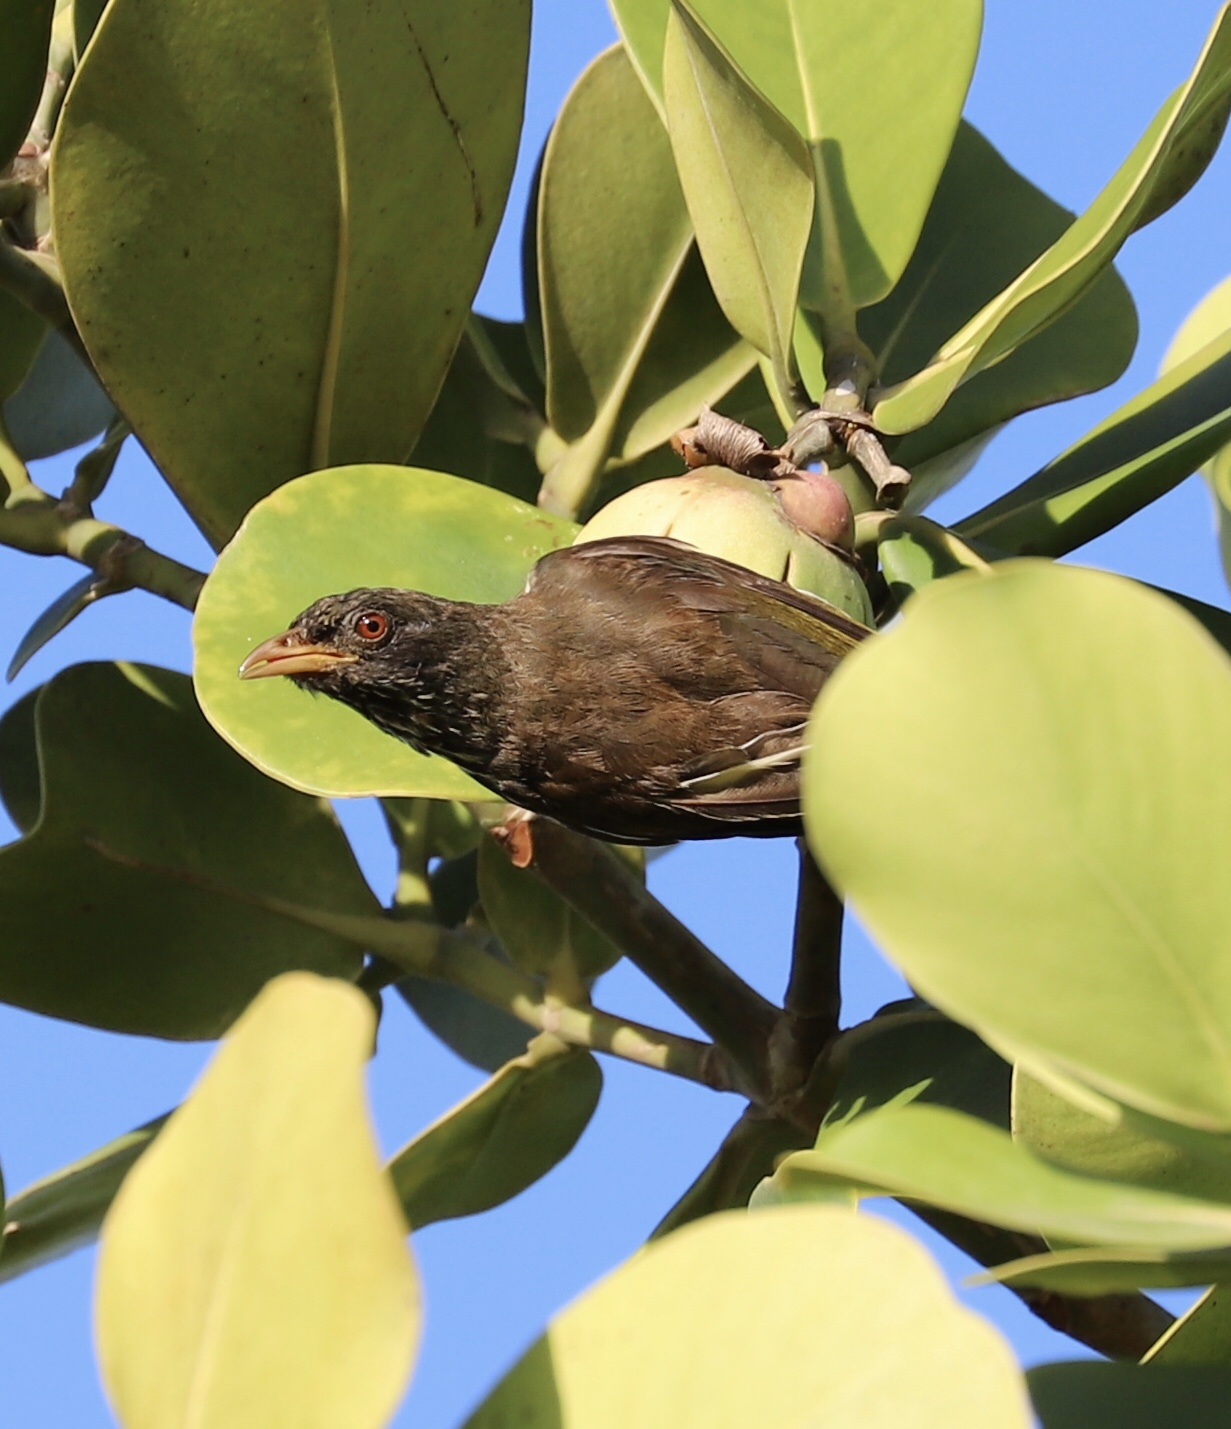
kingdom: Animalia
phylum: Chordata
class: Aves
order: Passeriformes
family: Dulidae
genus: Dulus
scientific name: Dulus dominicus
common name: Palmchat
